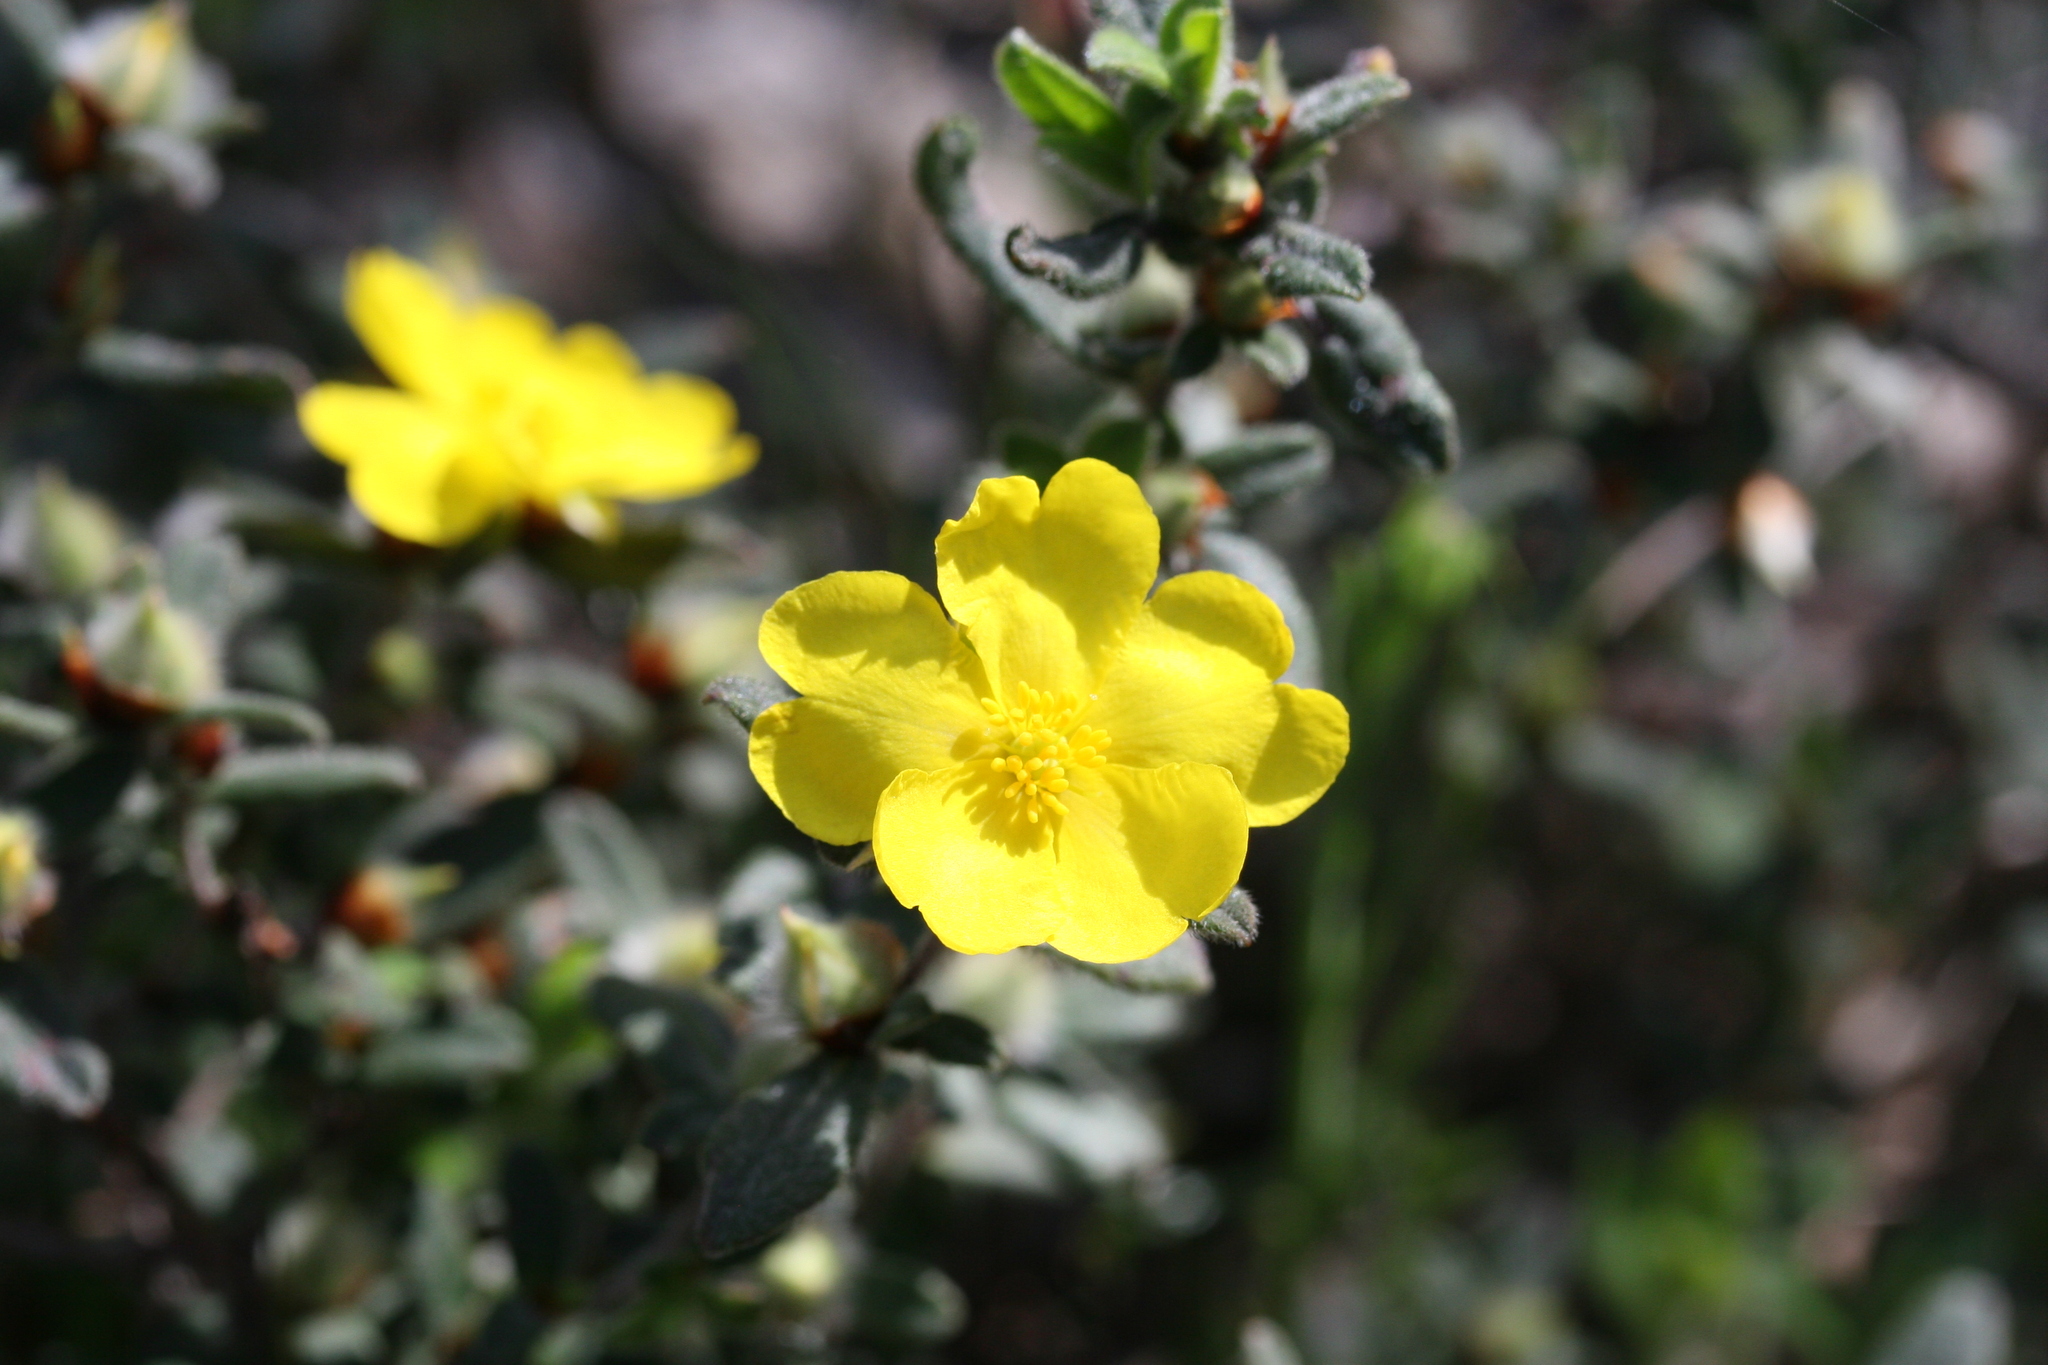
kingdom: Plantae
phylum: Tracheophyta
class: Magnoliopsida
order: Dilleniales
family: Dilleniaceae
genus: Hibbertia
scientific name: Hibbertia commutata
